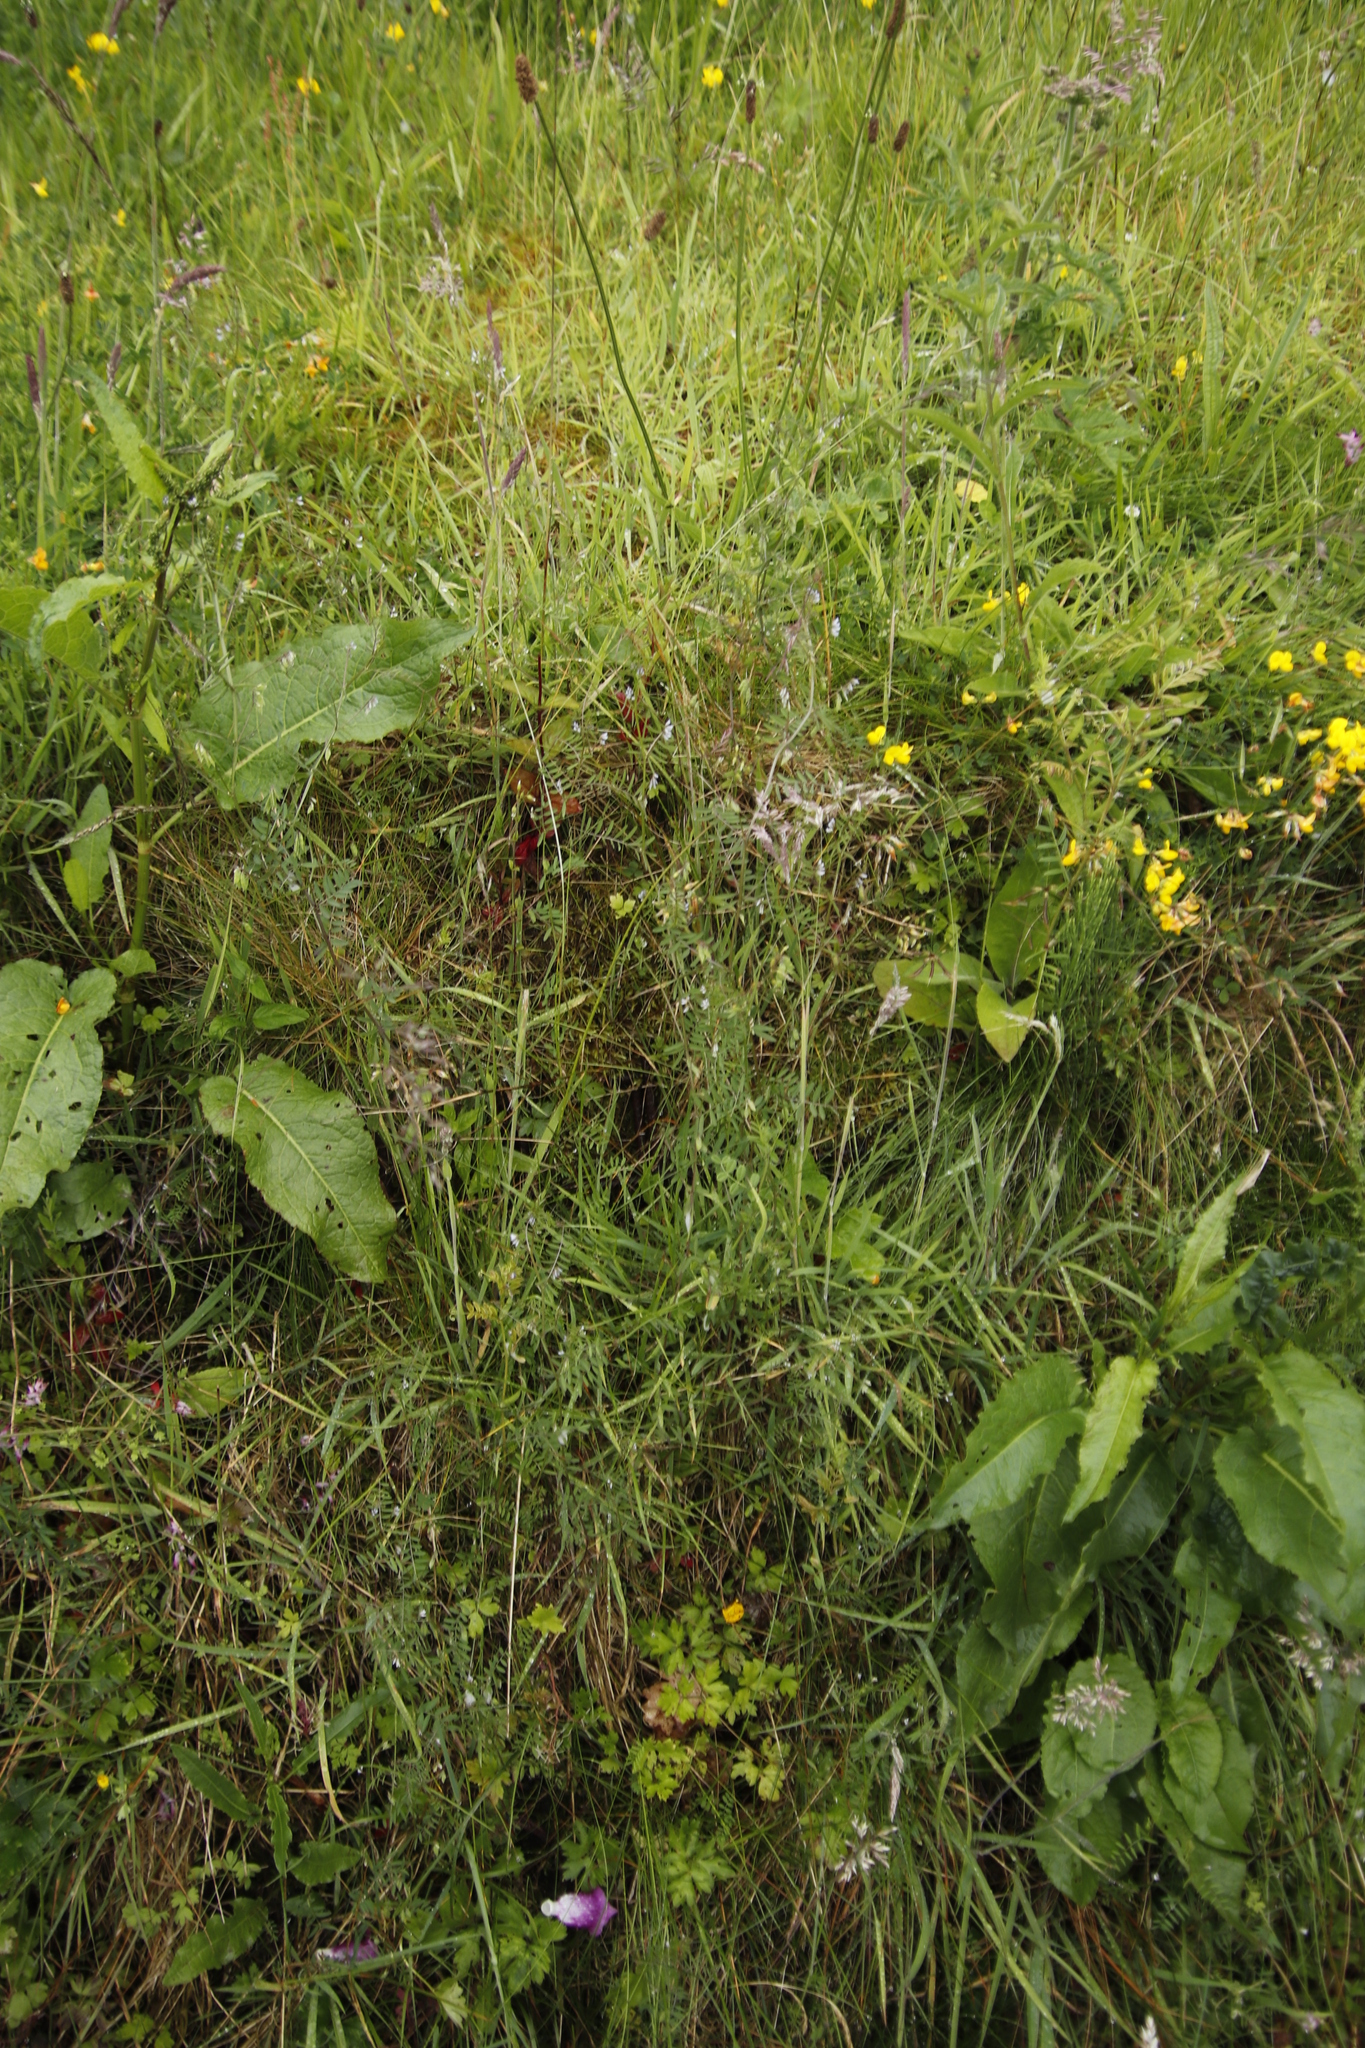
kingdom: Plantae
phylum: Tracheophyta
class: Magnoliopsida
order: Fabales
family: Fabaceae
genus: Vicia
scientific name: Vicia hirsuta
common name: Tiny vetch
